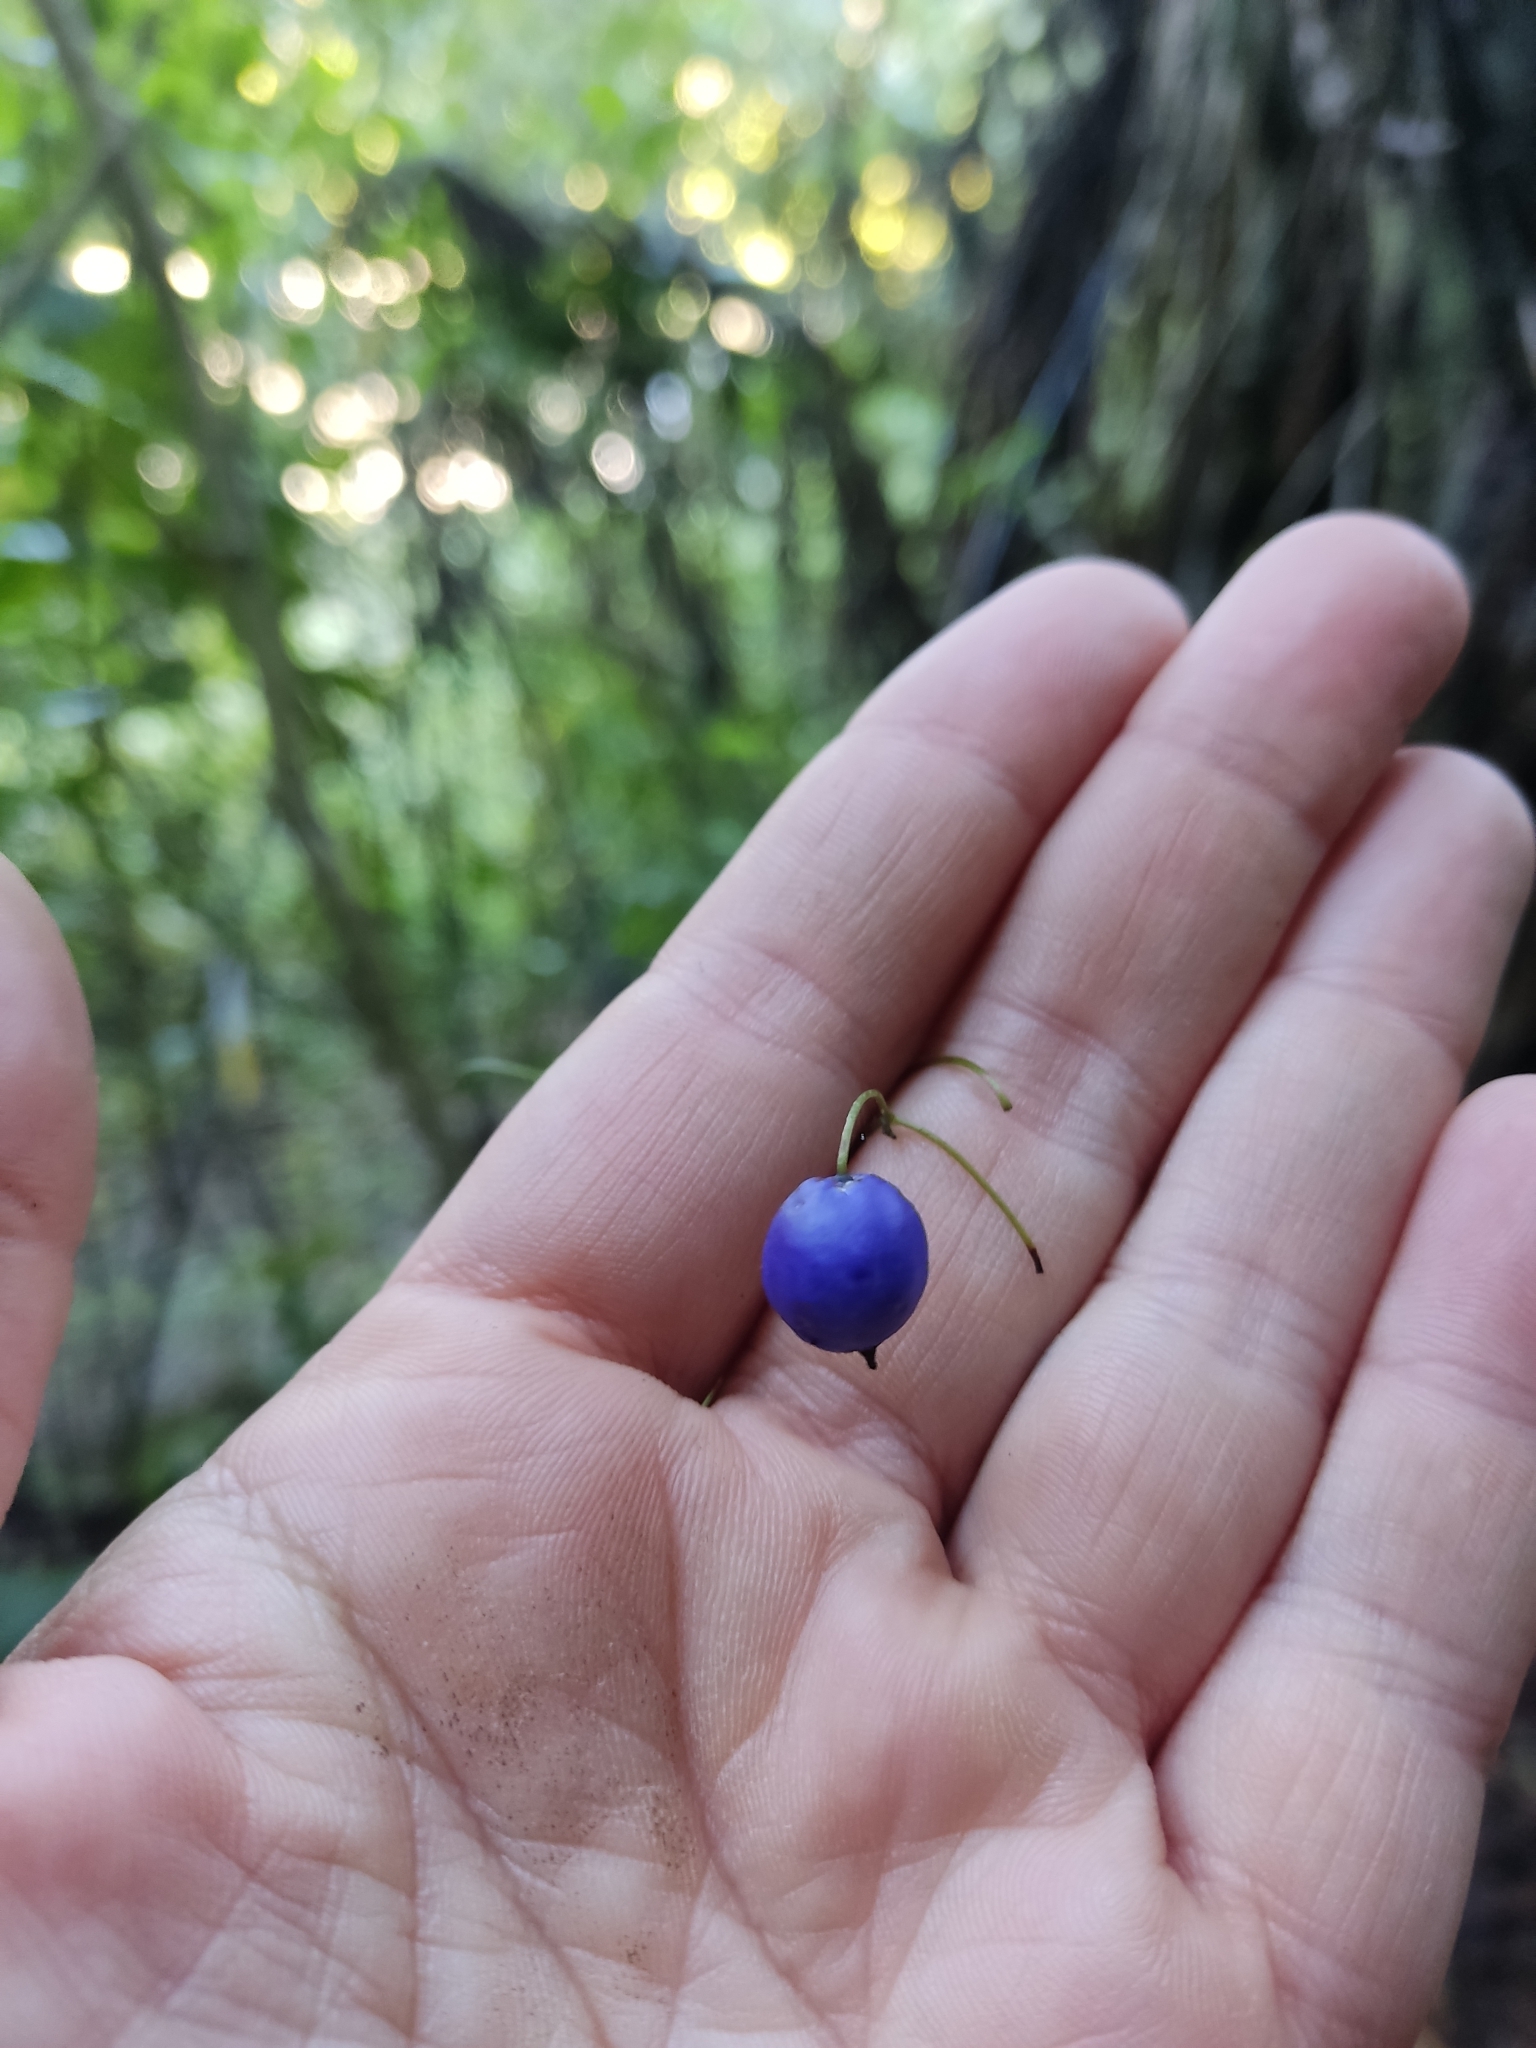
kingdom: Plantae
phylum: Tracheophyta
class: Liliopsida
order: Asparagales
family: Asphodelaceae
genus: Dianella
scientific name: Dianella nigra
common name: New zealand-blueberry
